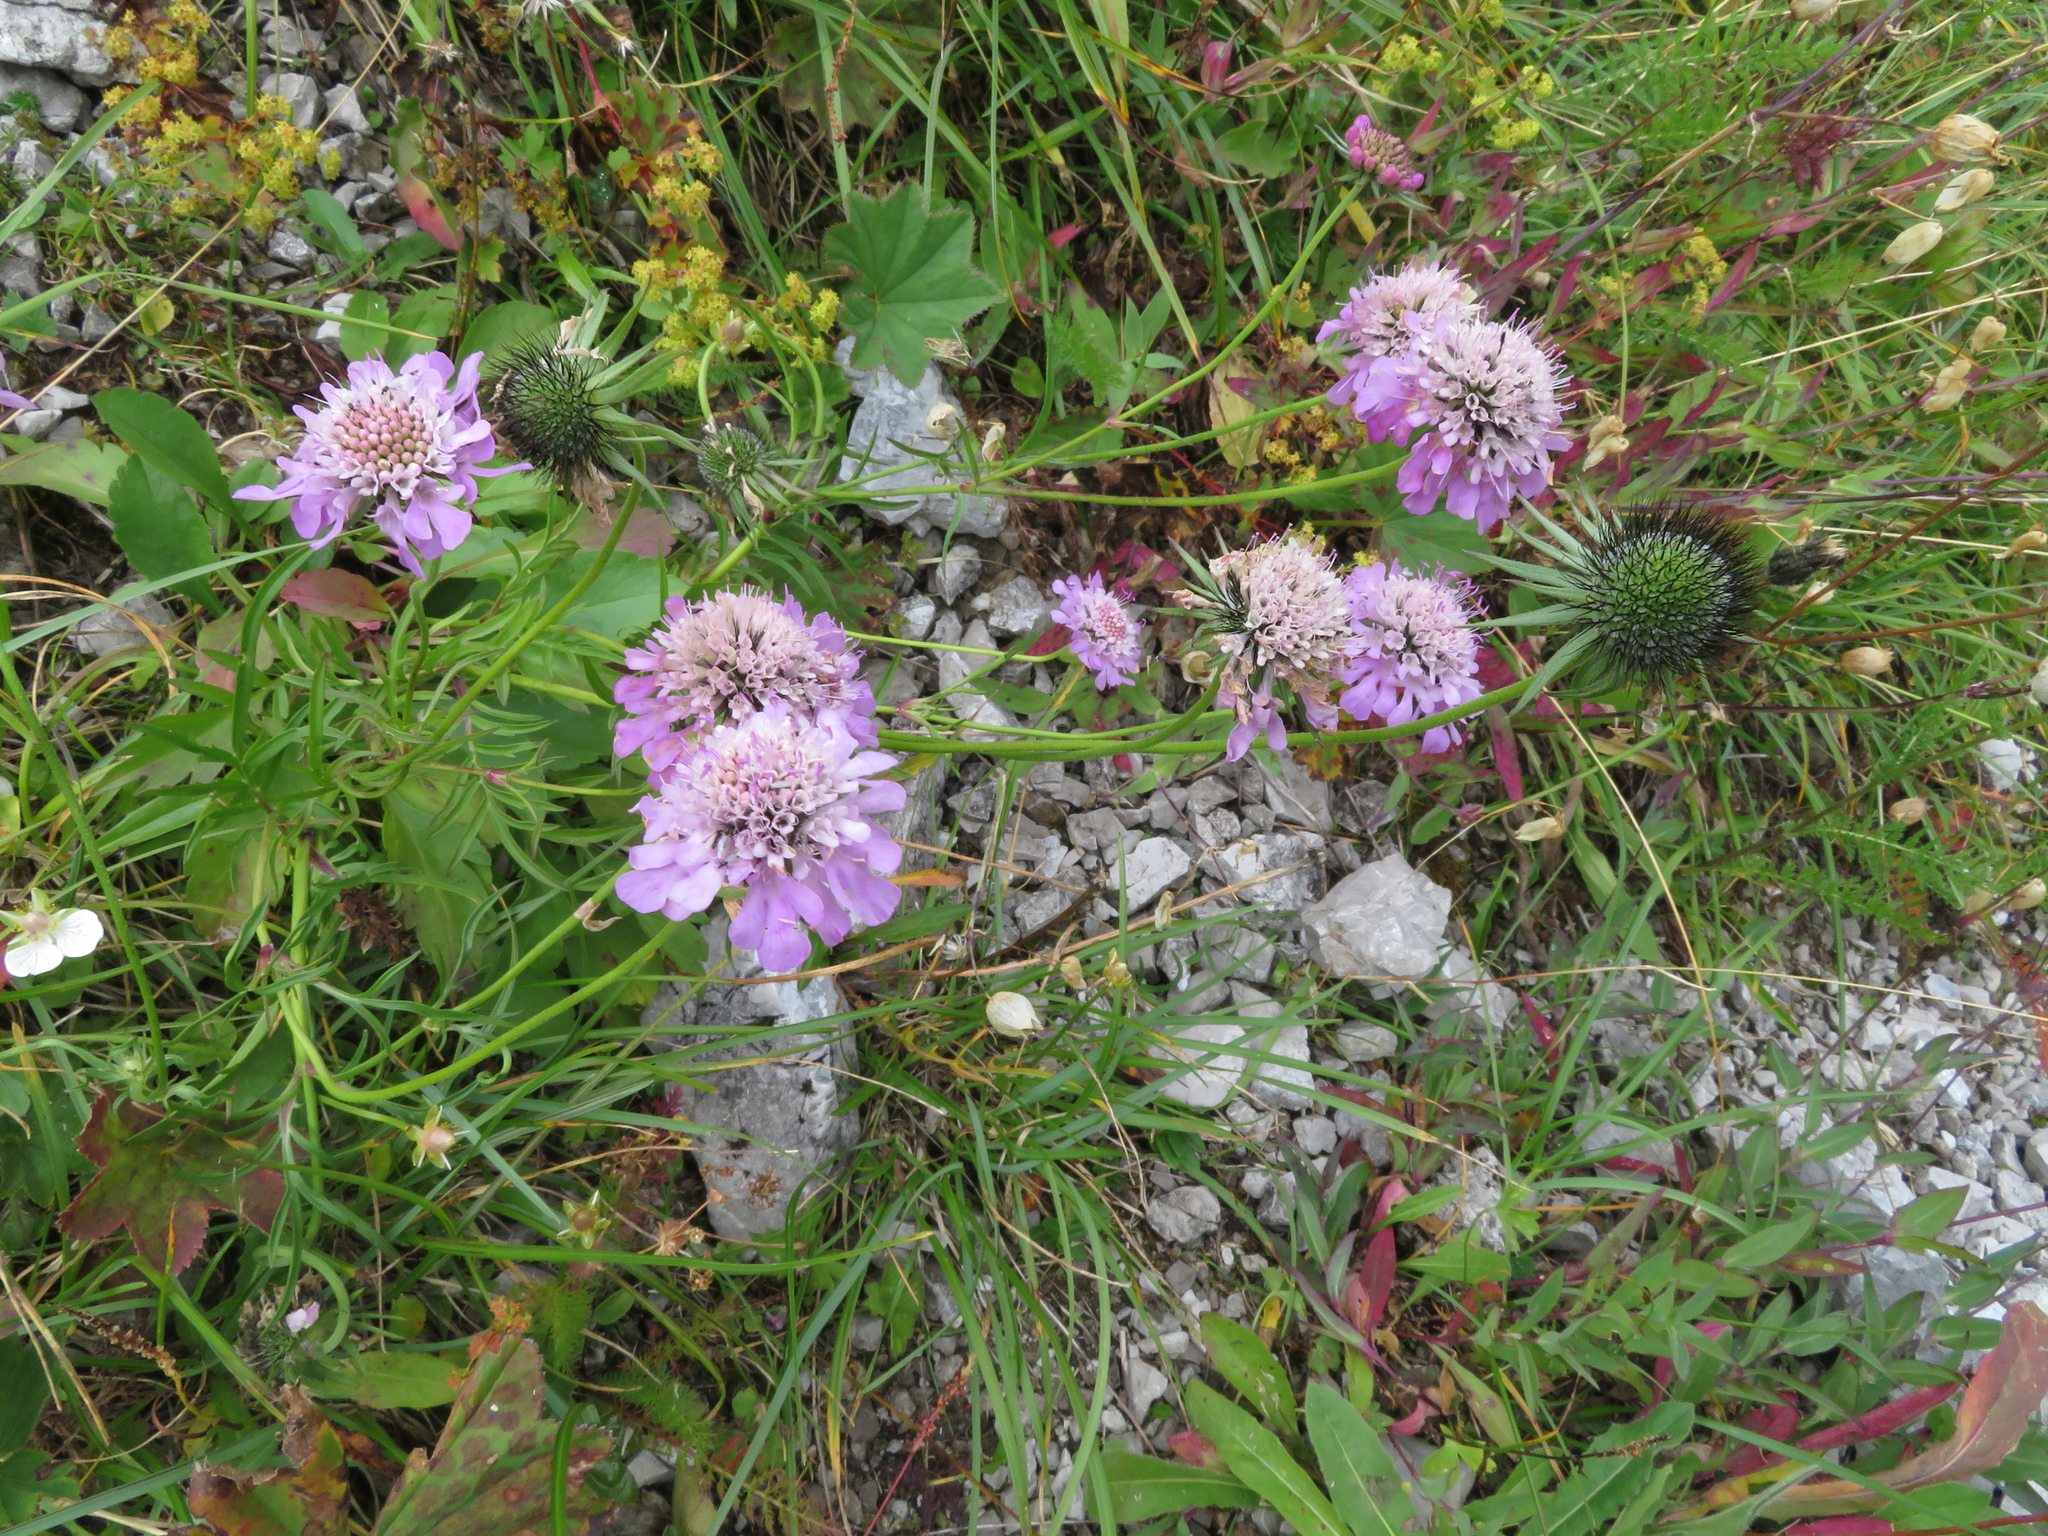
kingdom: Plantae
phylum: Tracheophyta
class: Magnoliopsida
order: Dipsacales
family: Caprifoliaceae
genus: Scabiosa
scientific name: Scabiosa lucida
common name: Shining scabious
